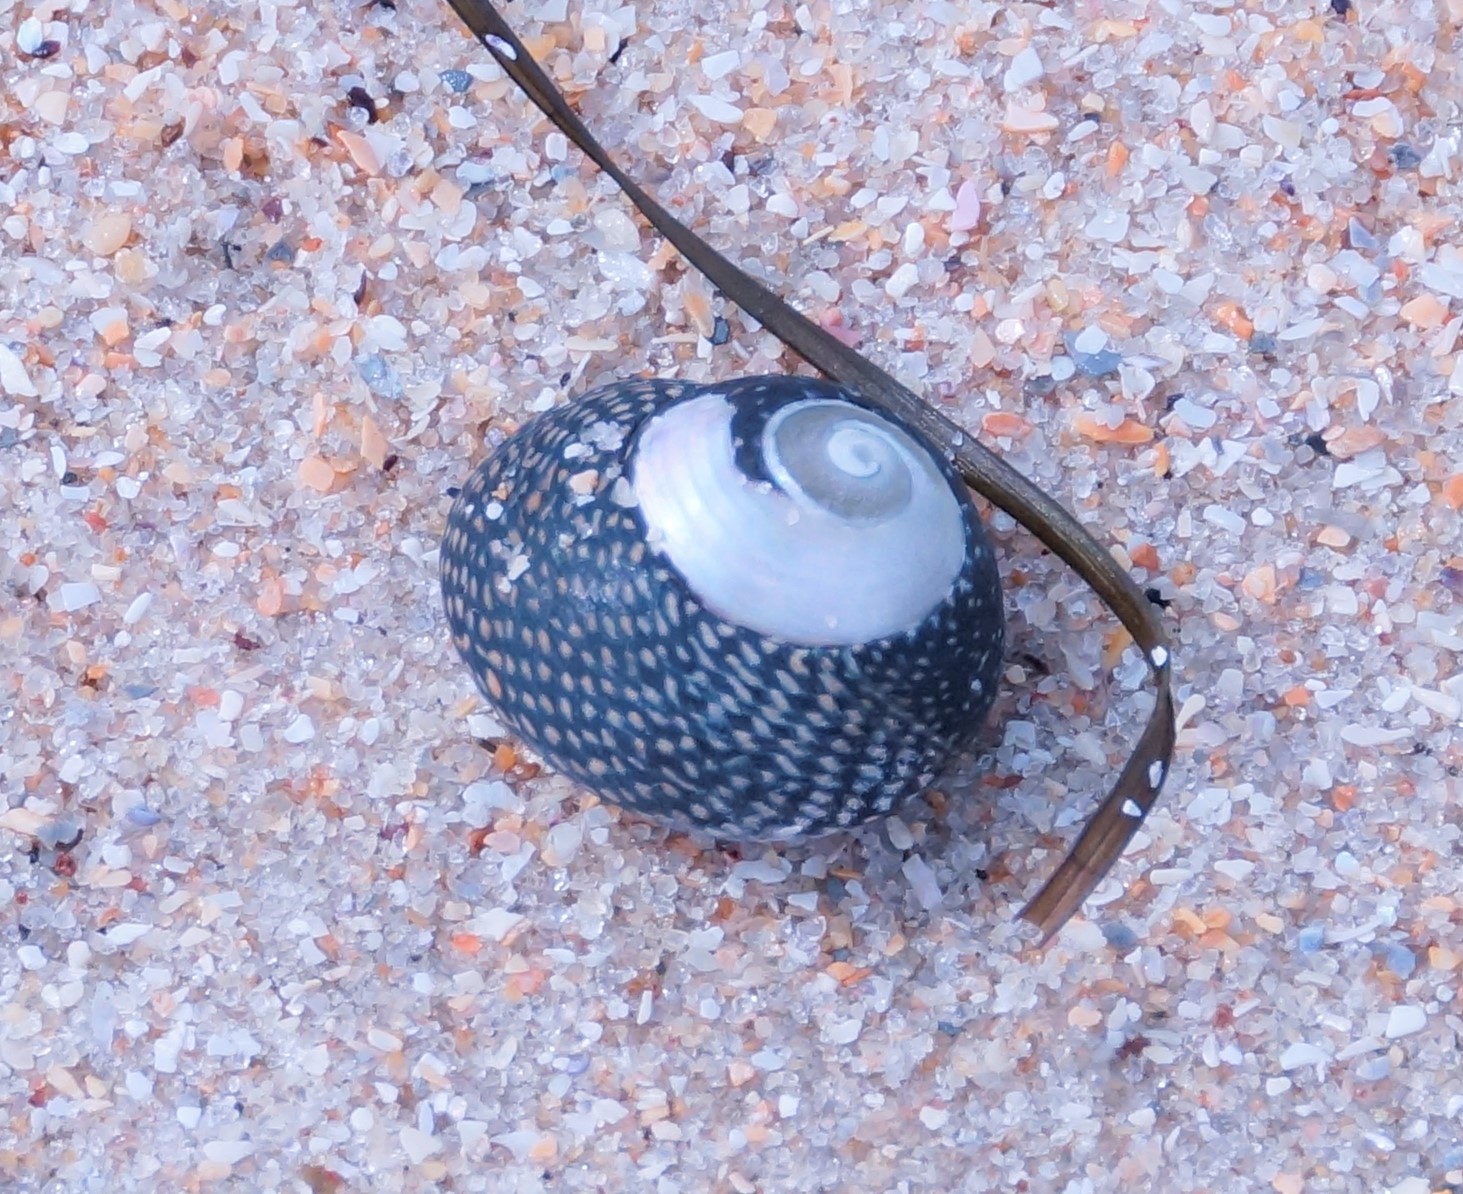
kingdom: Animalia
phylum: Mollusca
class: Gastropoda
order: Trochida
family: Trochidae
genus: Chlorodiloma
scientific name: Chlorodiloma odontis
